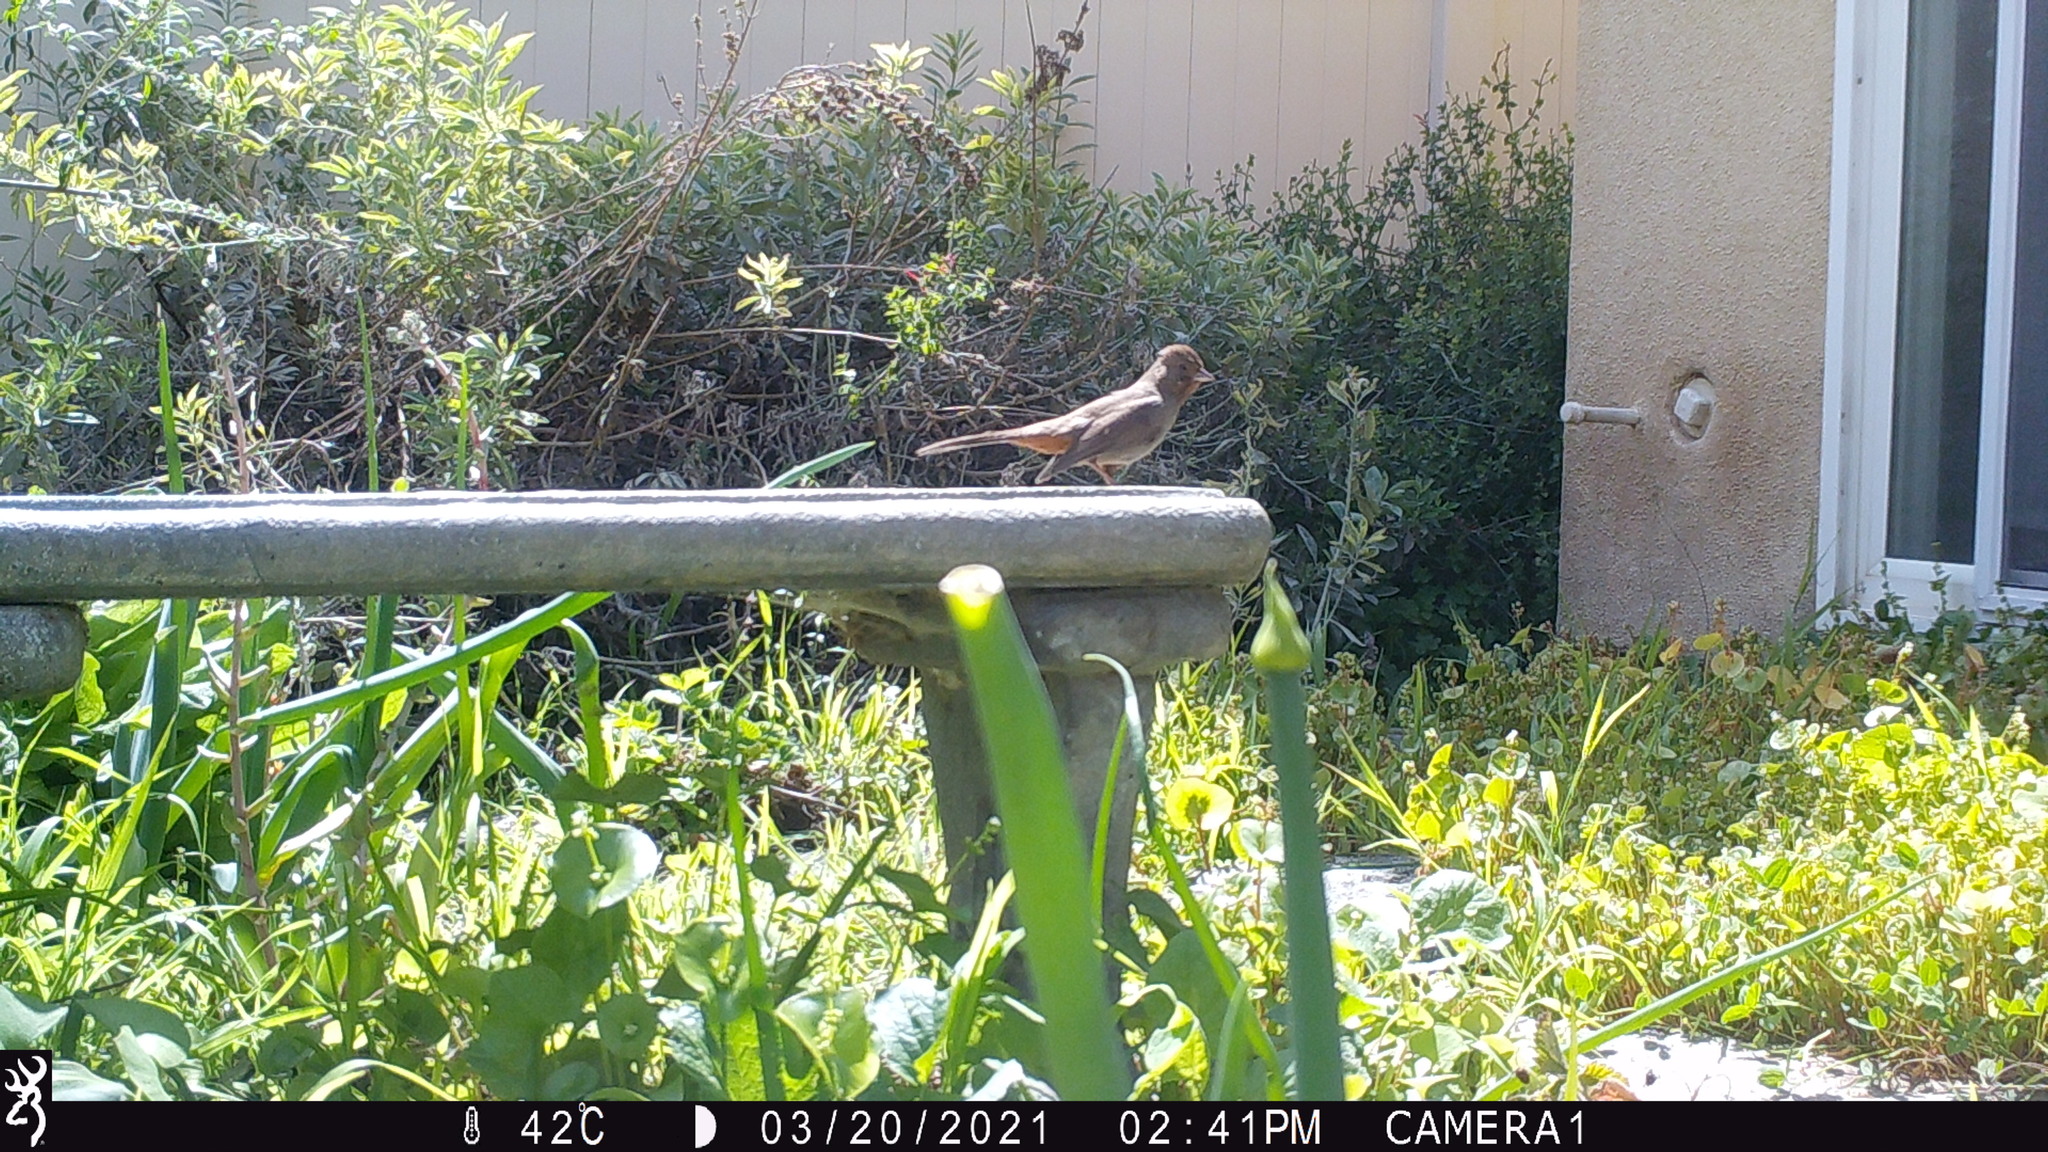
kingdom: Animalia
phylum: Chordata
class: Aves
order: Passeriformes
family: Passerellidae
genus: Melozone
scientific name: Melozone crissalis
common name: California towhee
